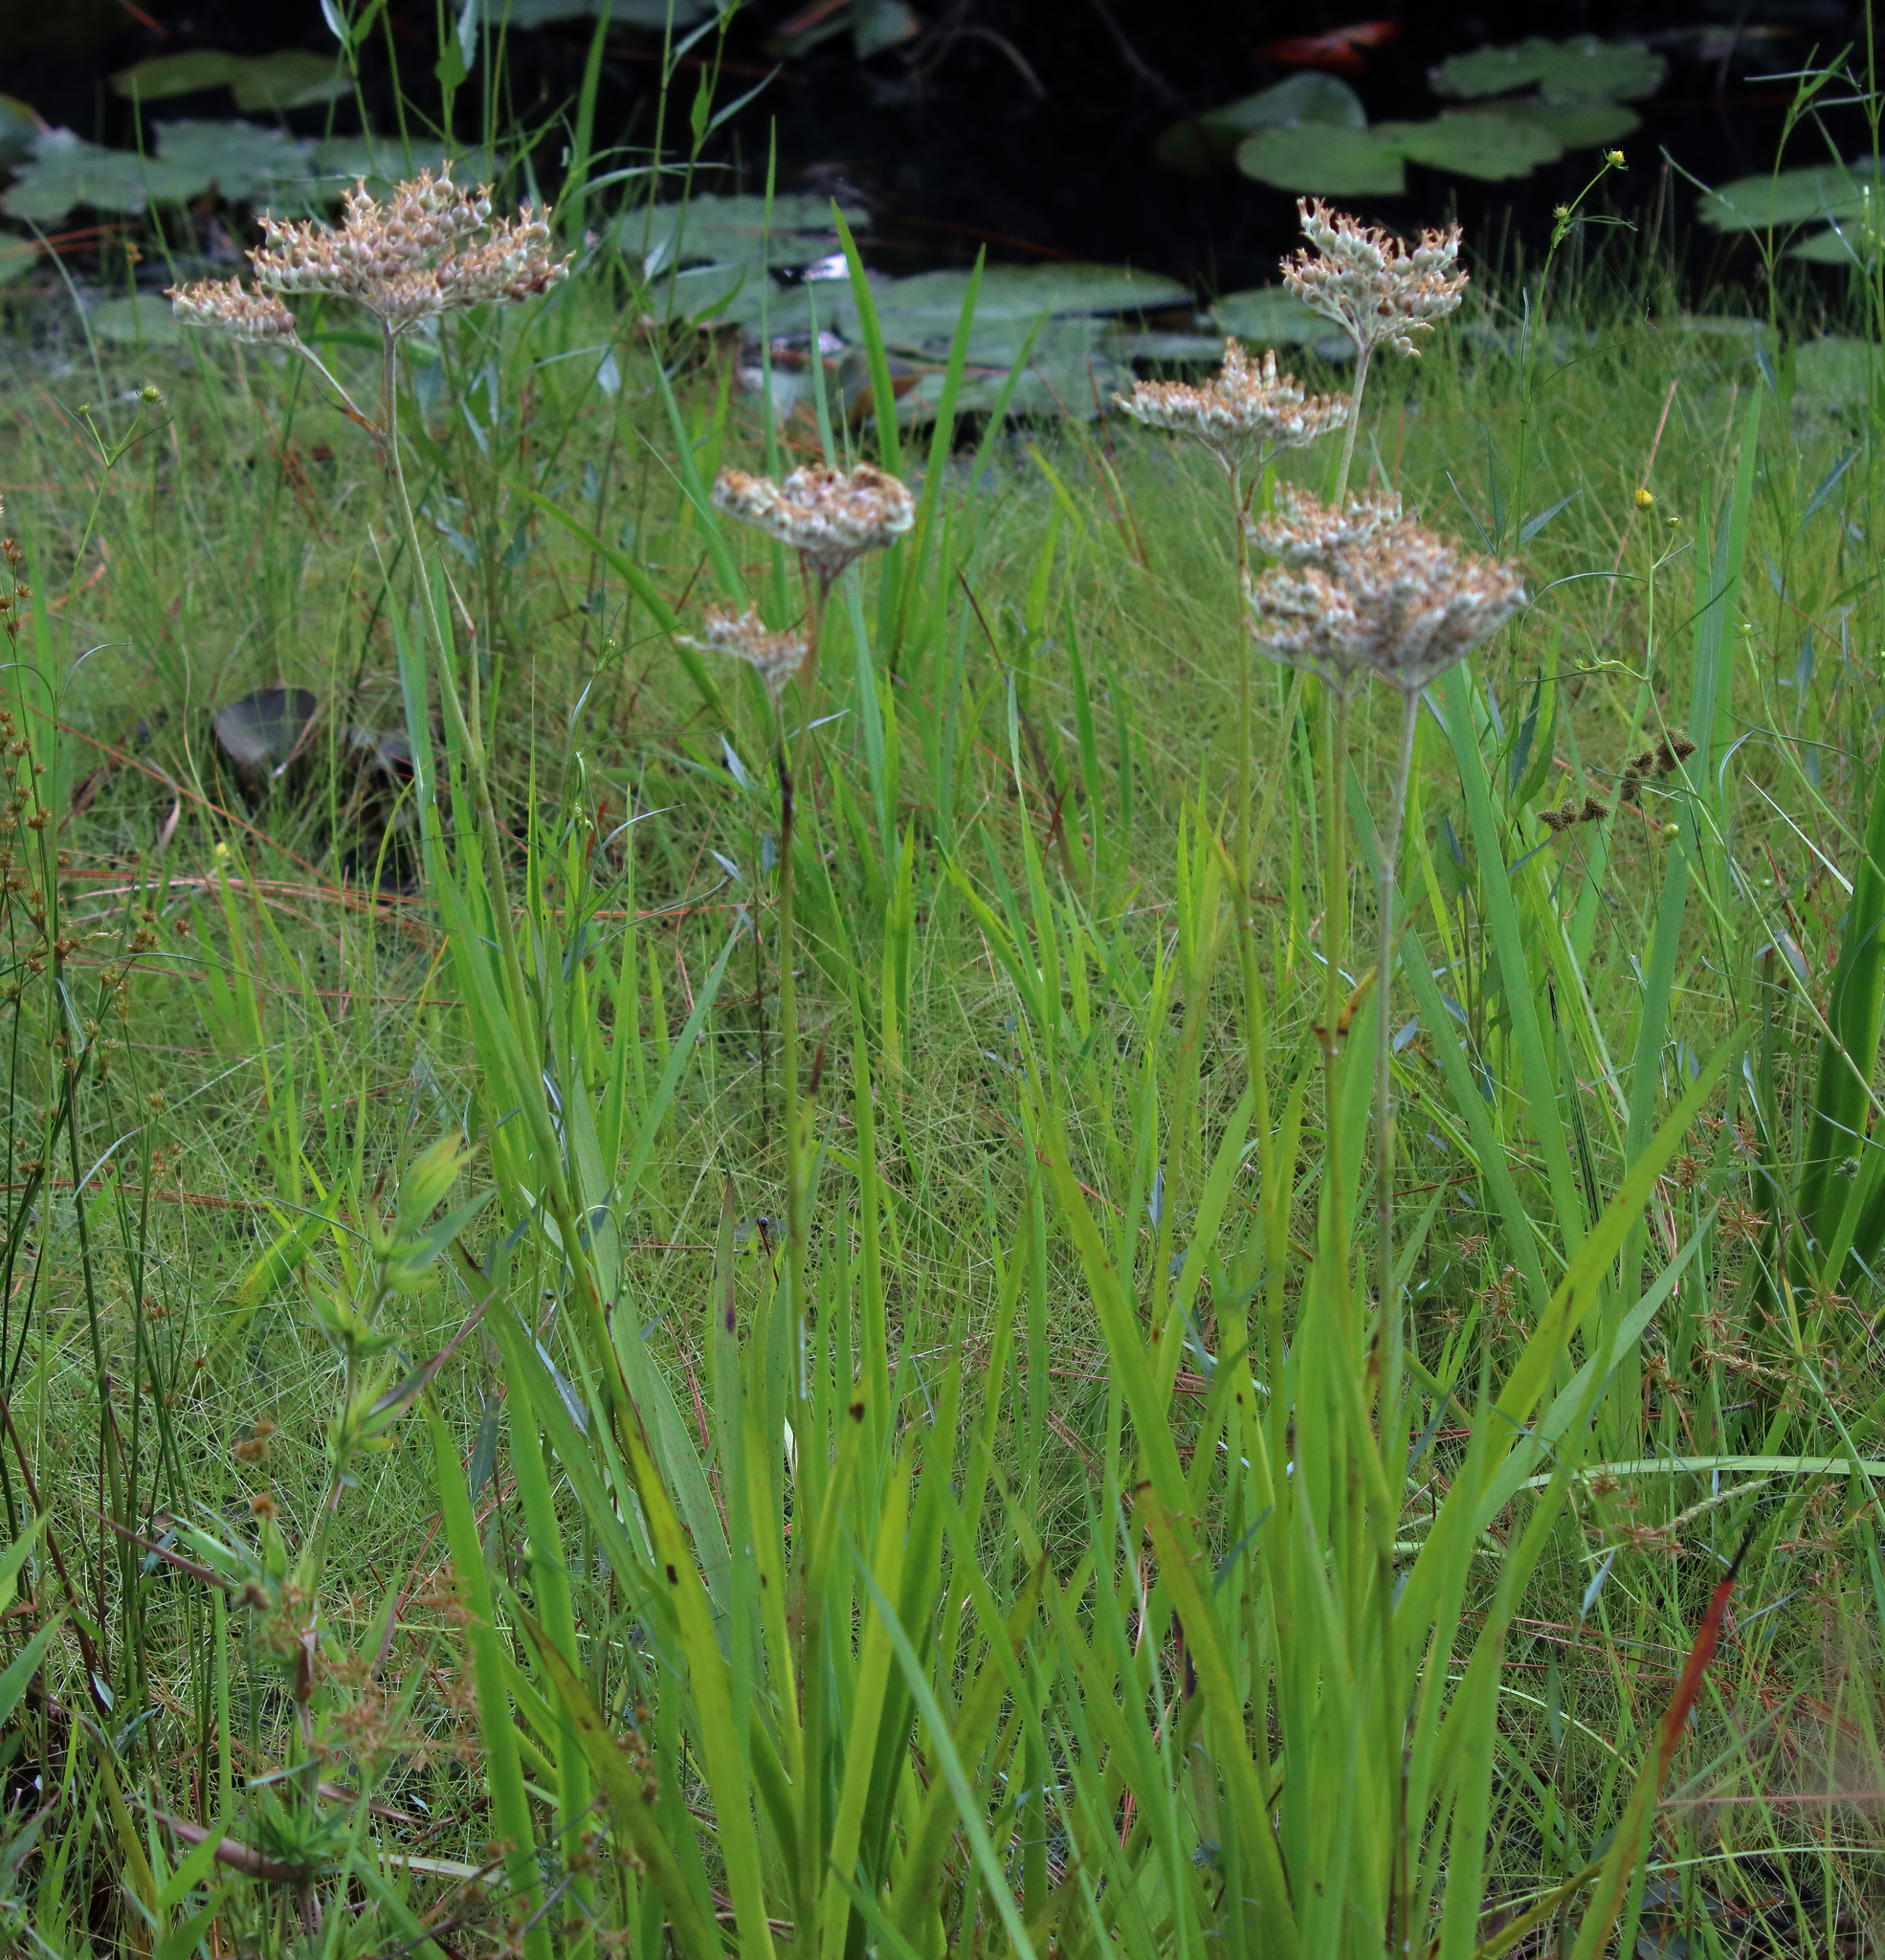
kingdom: Plantae
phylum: Tracheophyta
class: Liliopsida
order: Commelinales
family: Haemodoraceae
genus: Lachnanthes
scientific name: Lachnanthes caroliana
